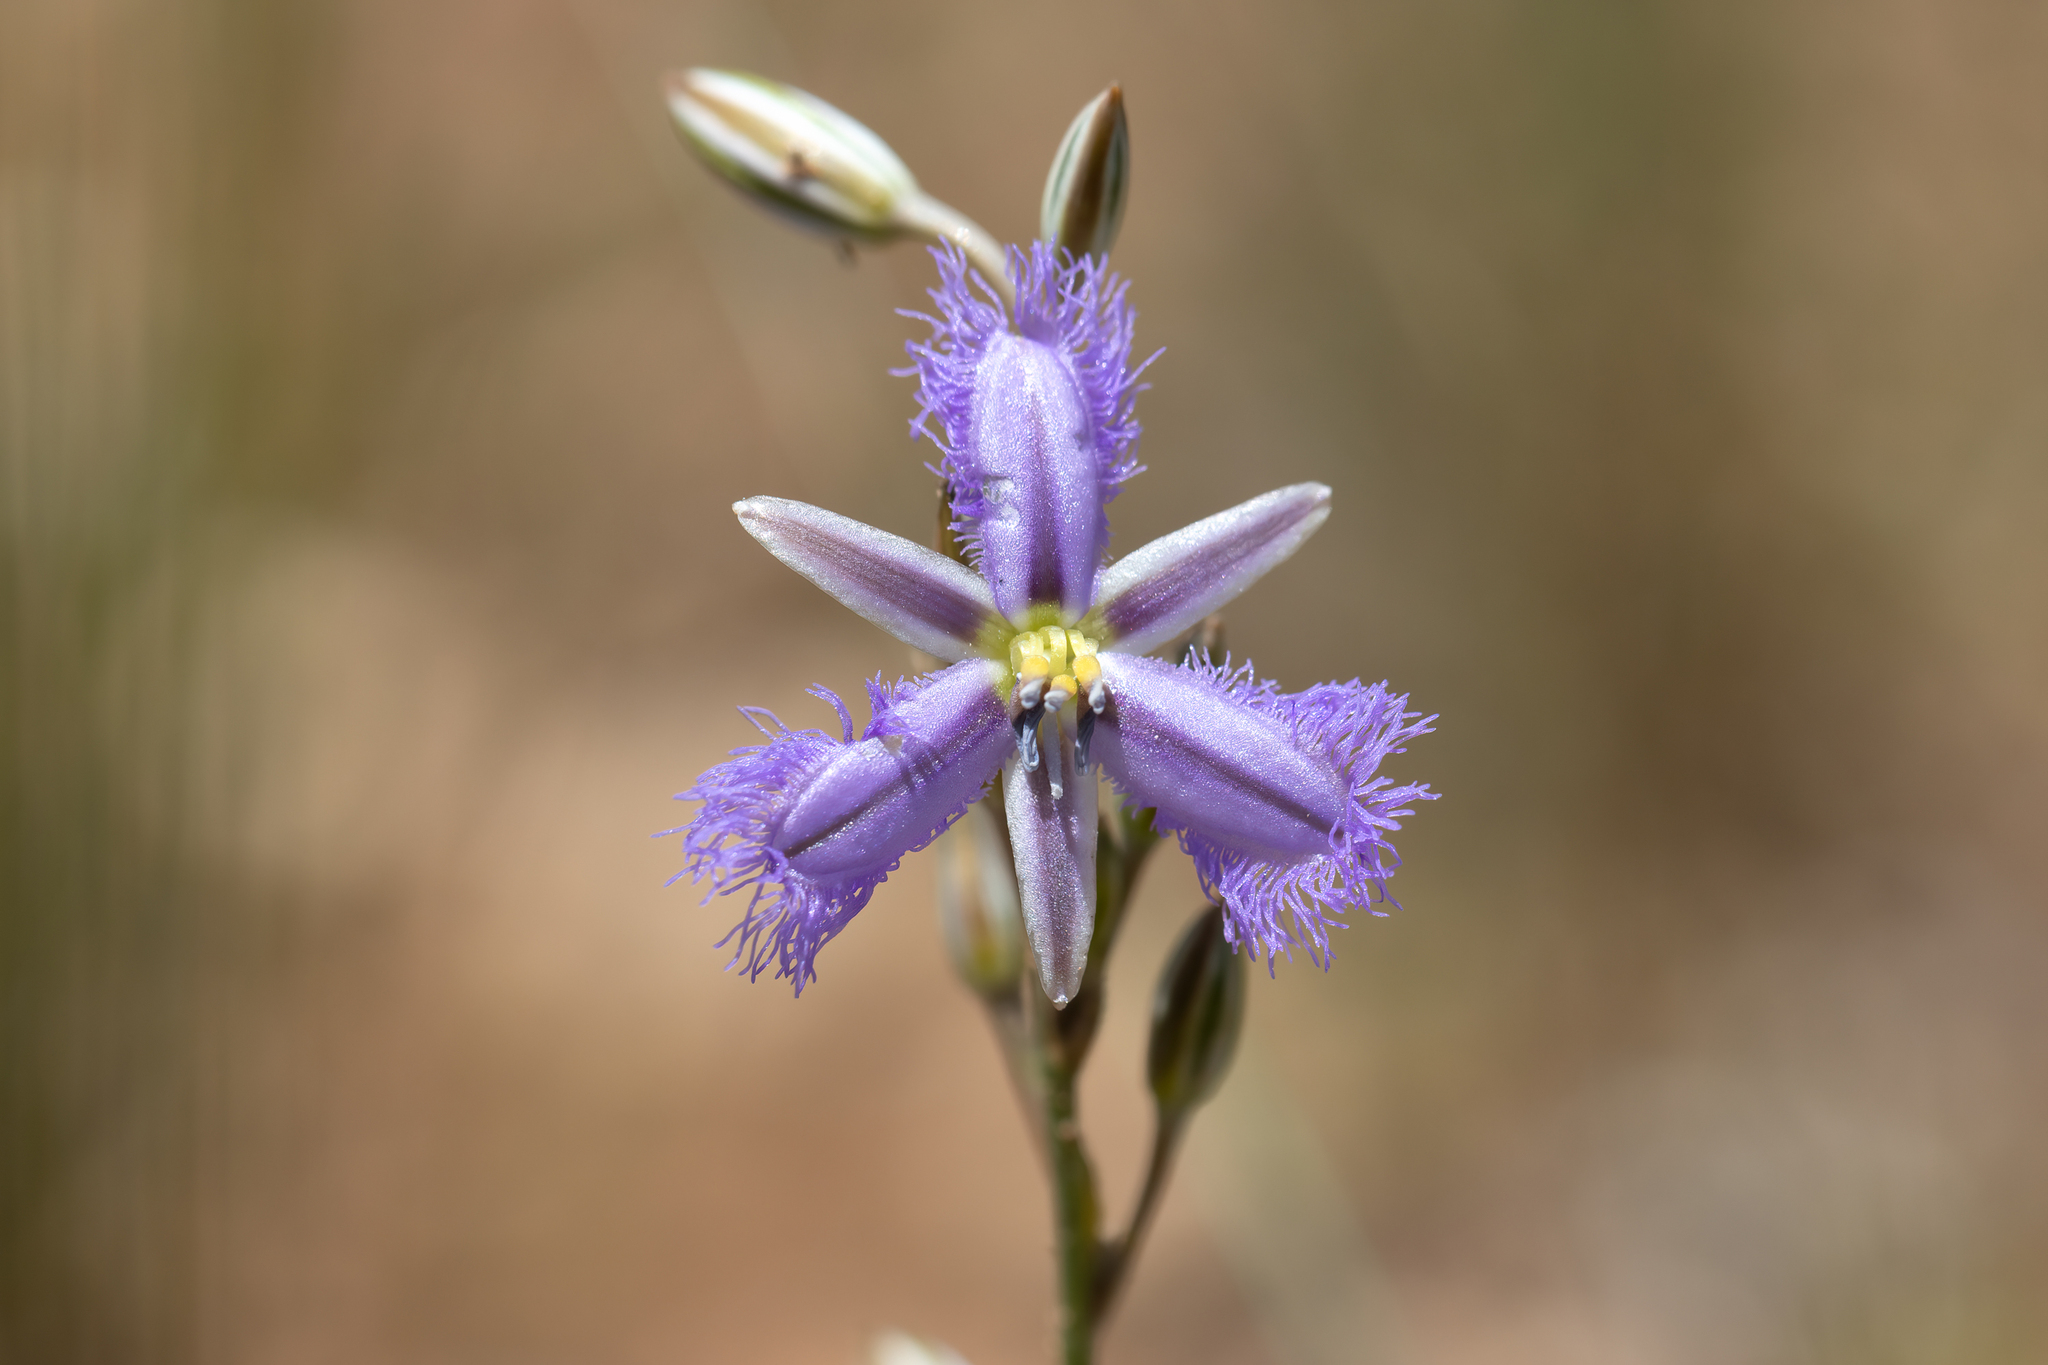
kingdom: Plantae
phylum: Tracheophyta
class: Liliopsida
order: Asparagales
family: Asparagaceae
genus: Thysanotus
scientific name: Thysanotus baueri
